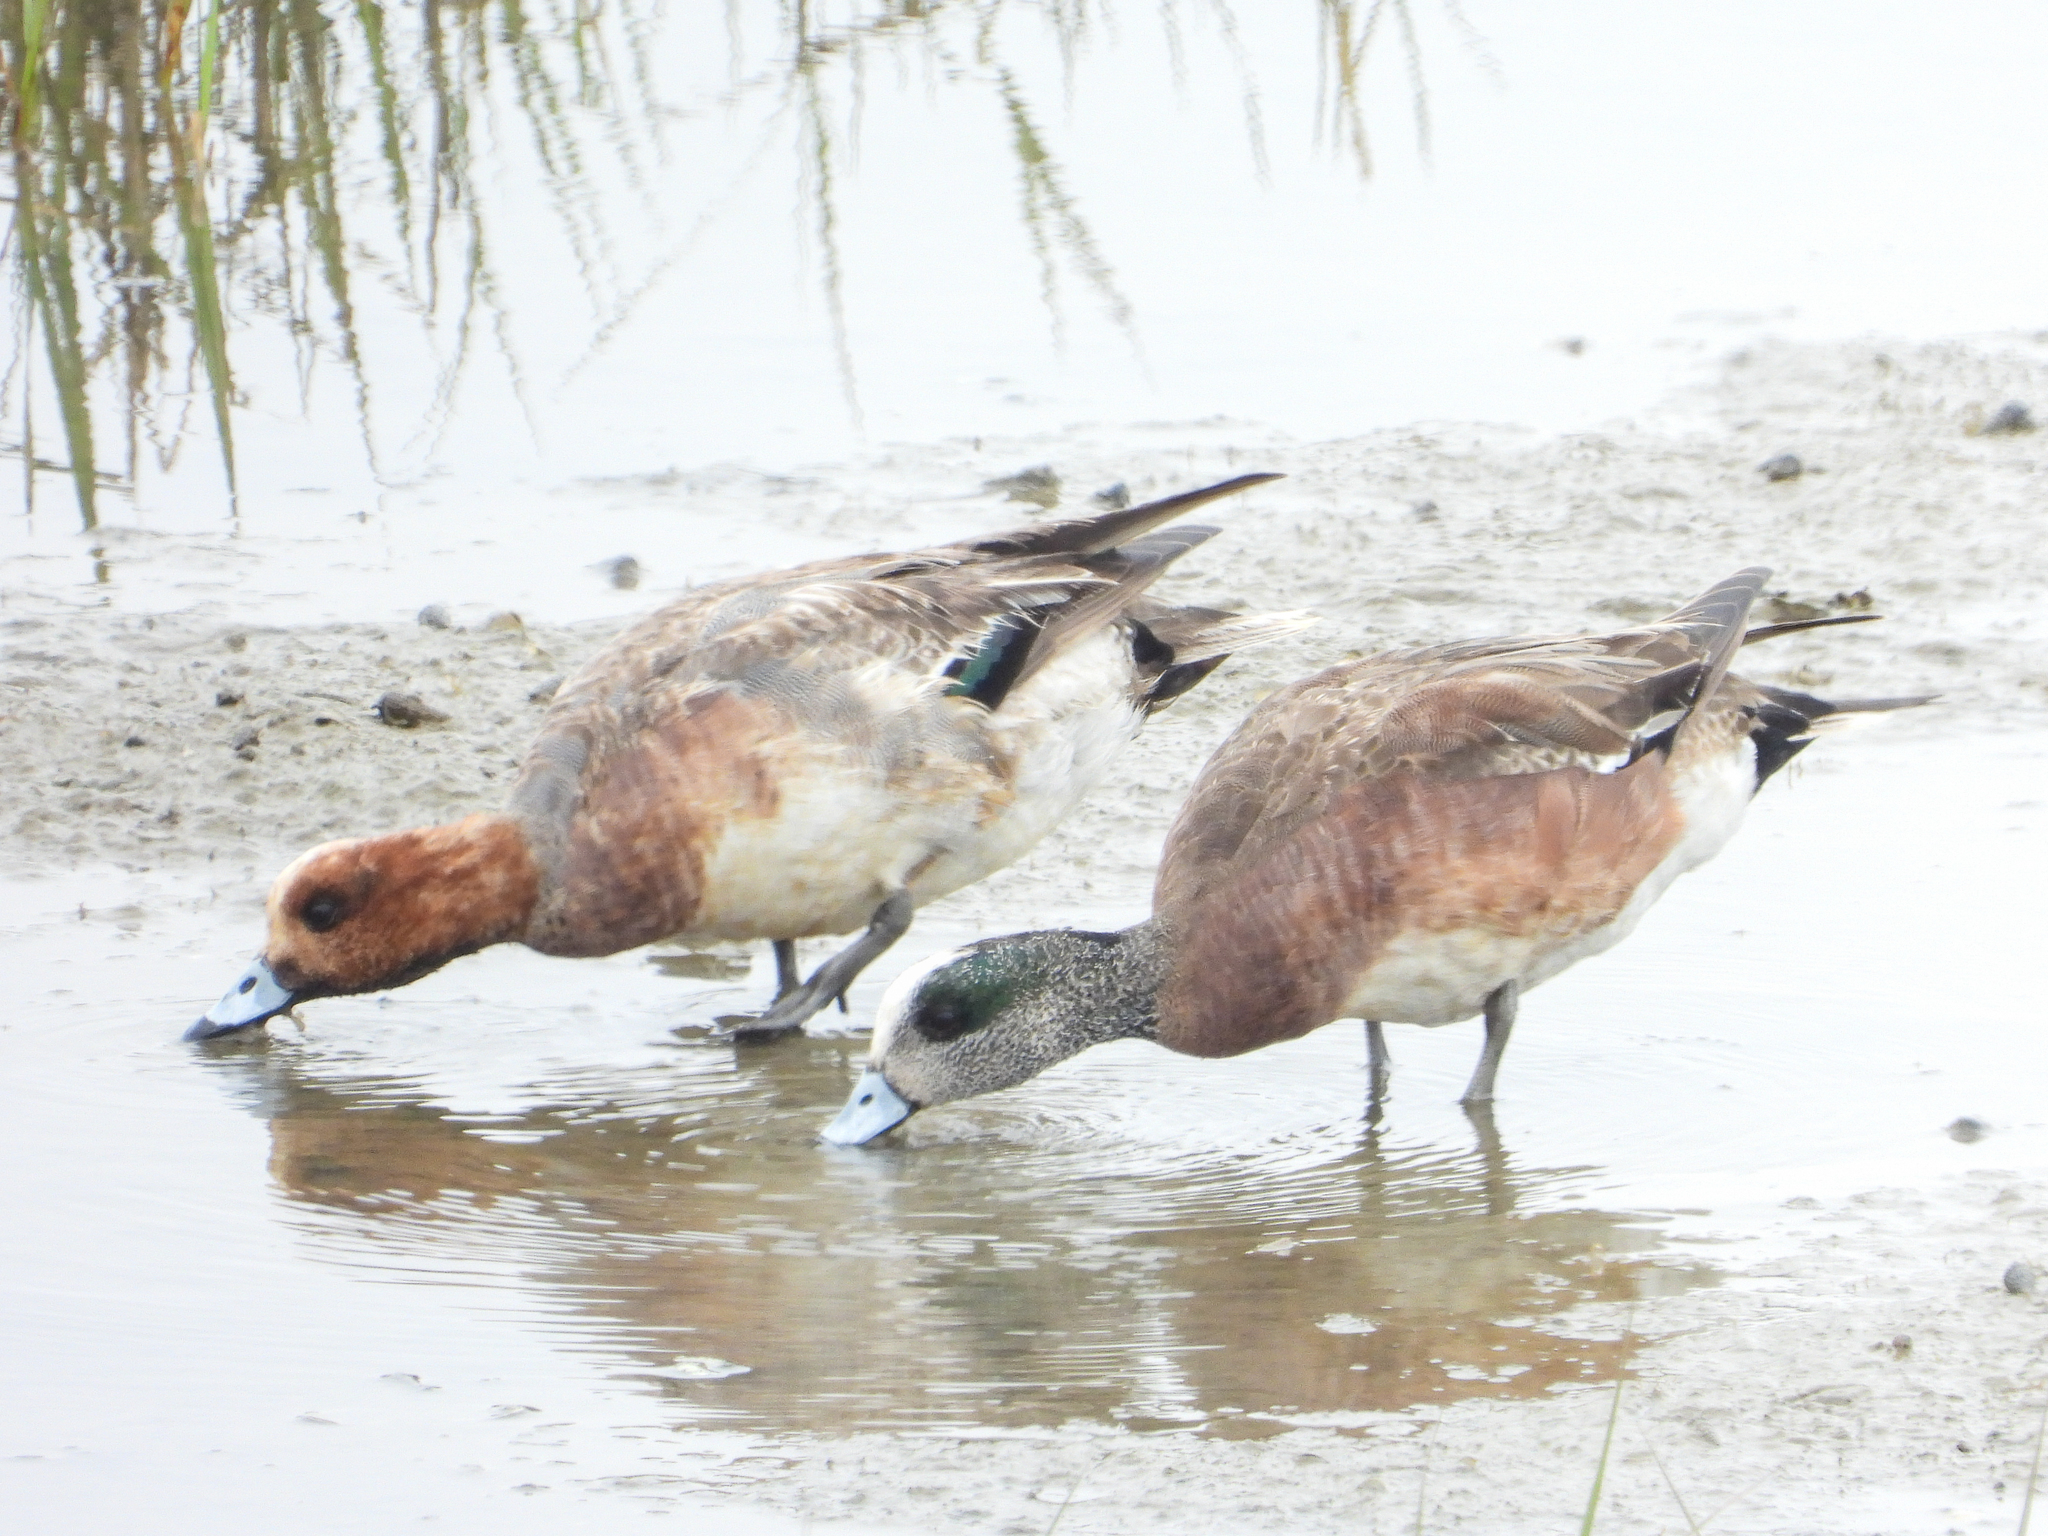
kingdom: Animalia
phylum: Chordata
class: Aves
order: Anseriformes
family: Anatidae
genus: Mareca
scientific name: Mareca americana
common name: American wigeon
